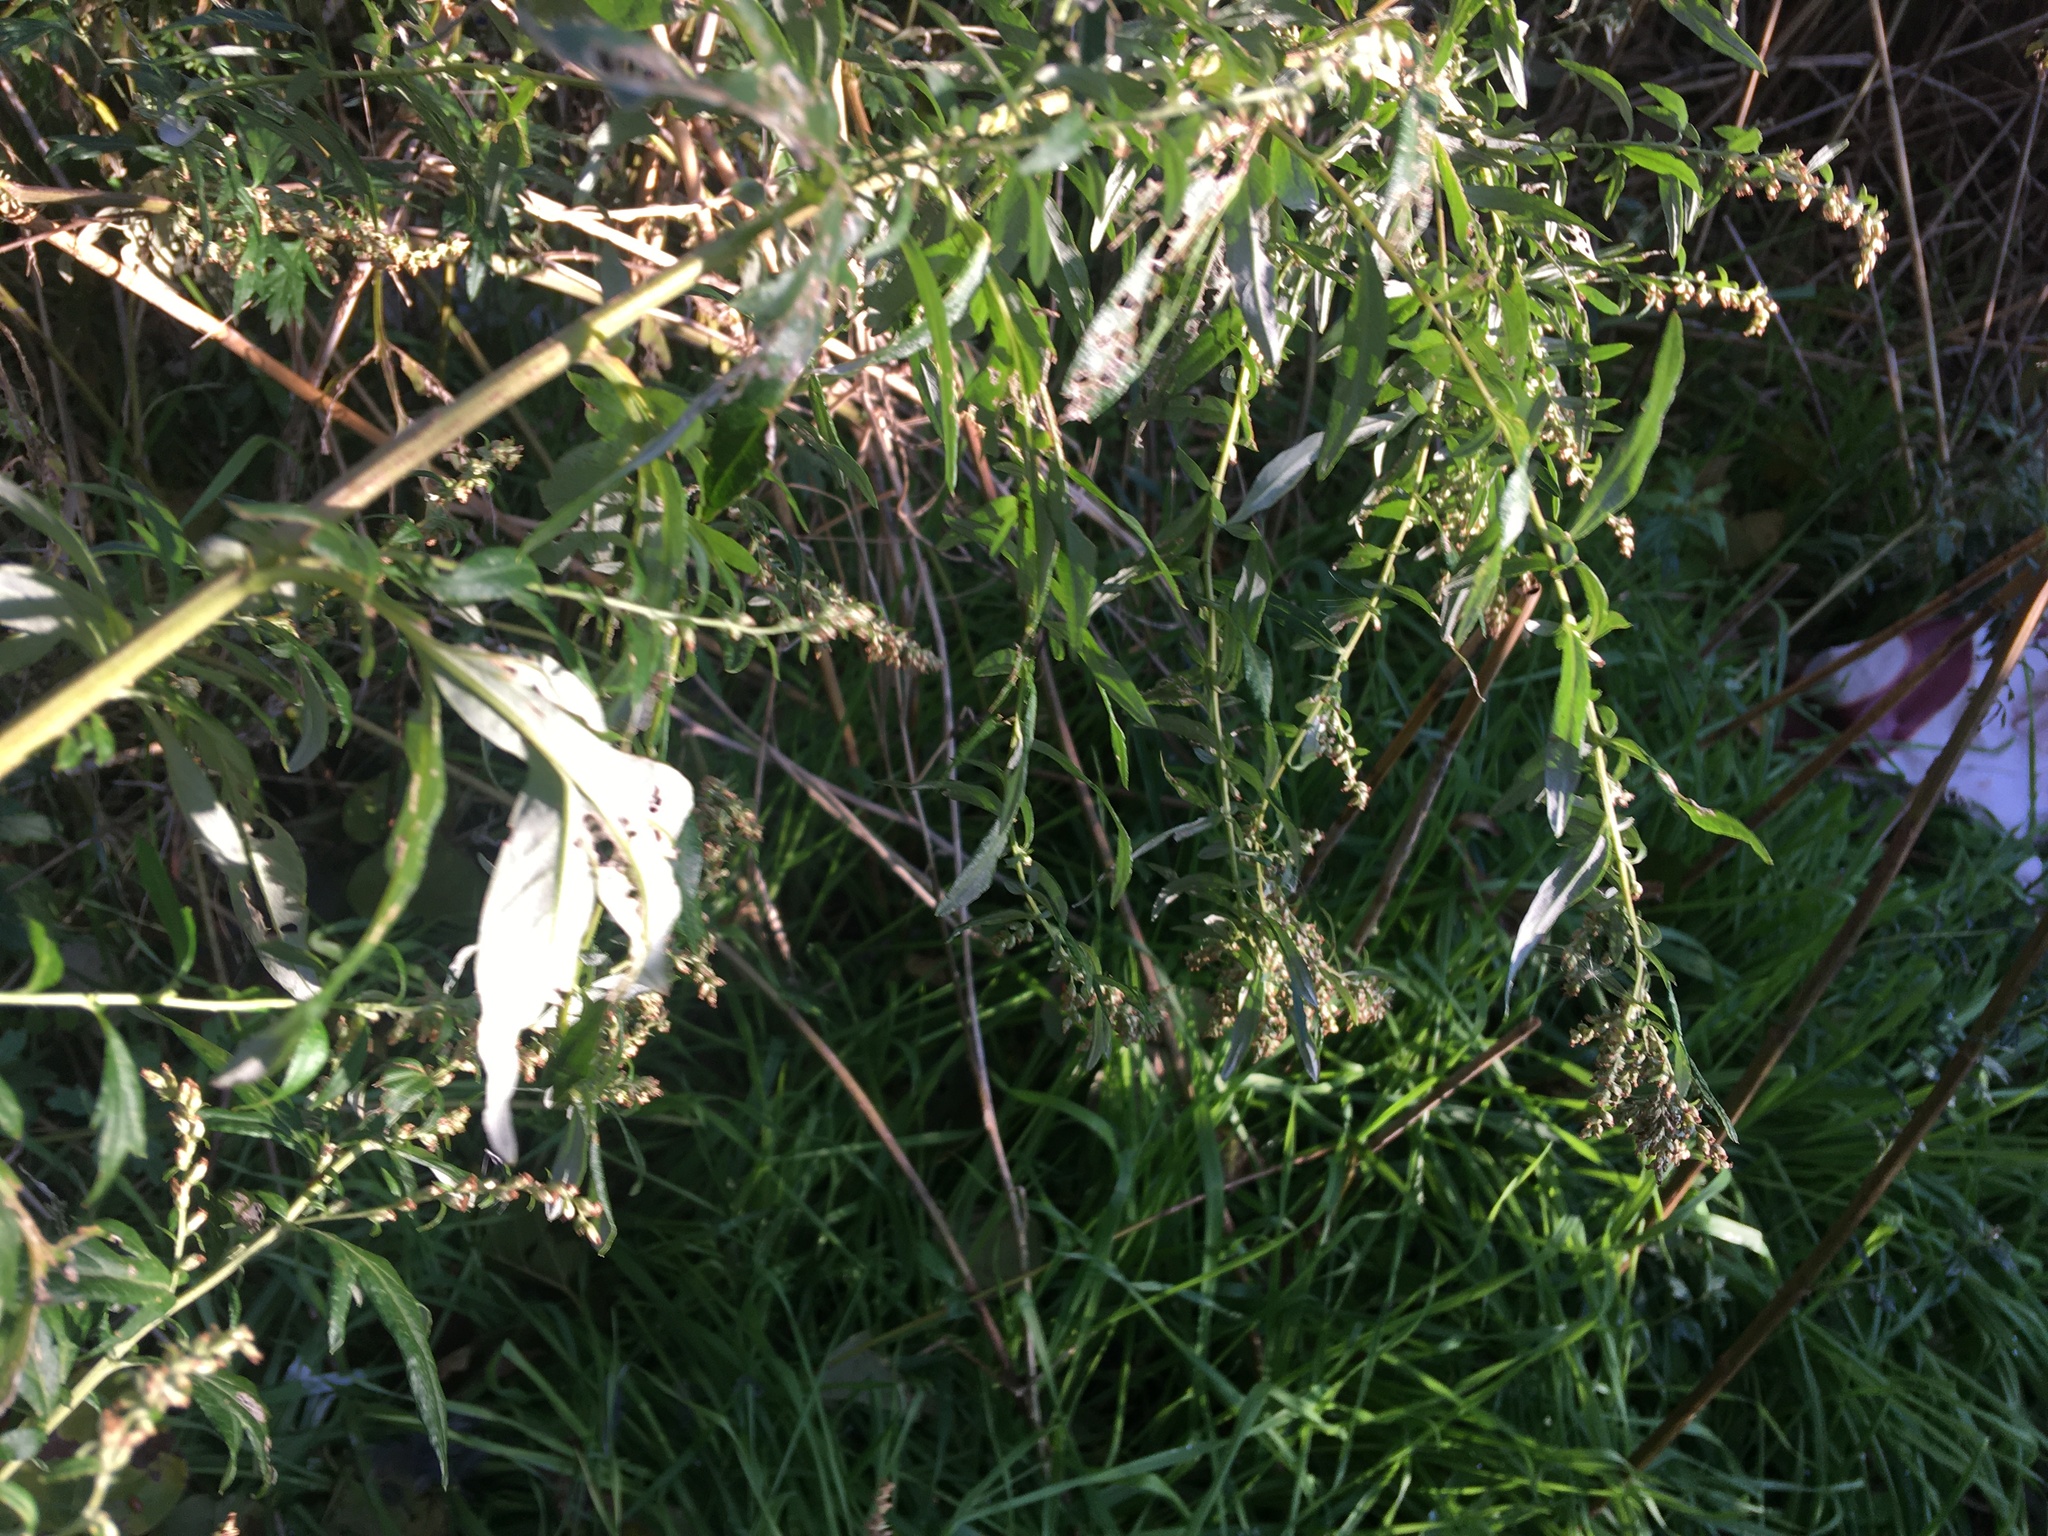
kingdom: Plantae
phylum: Tracheophyta
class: Magnoliopsida
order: Asterales
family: Asteraceae
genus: Artemisia
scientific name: Artemisia vulgaris
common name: Mugwort
